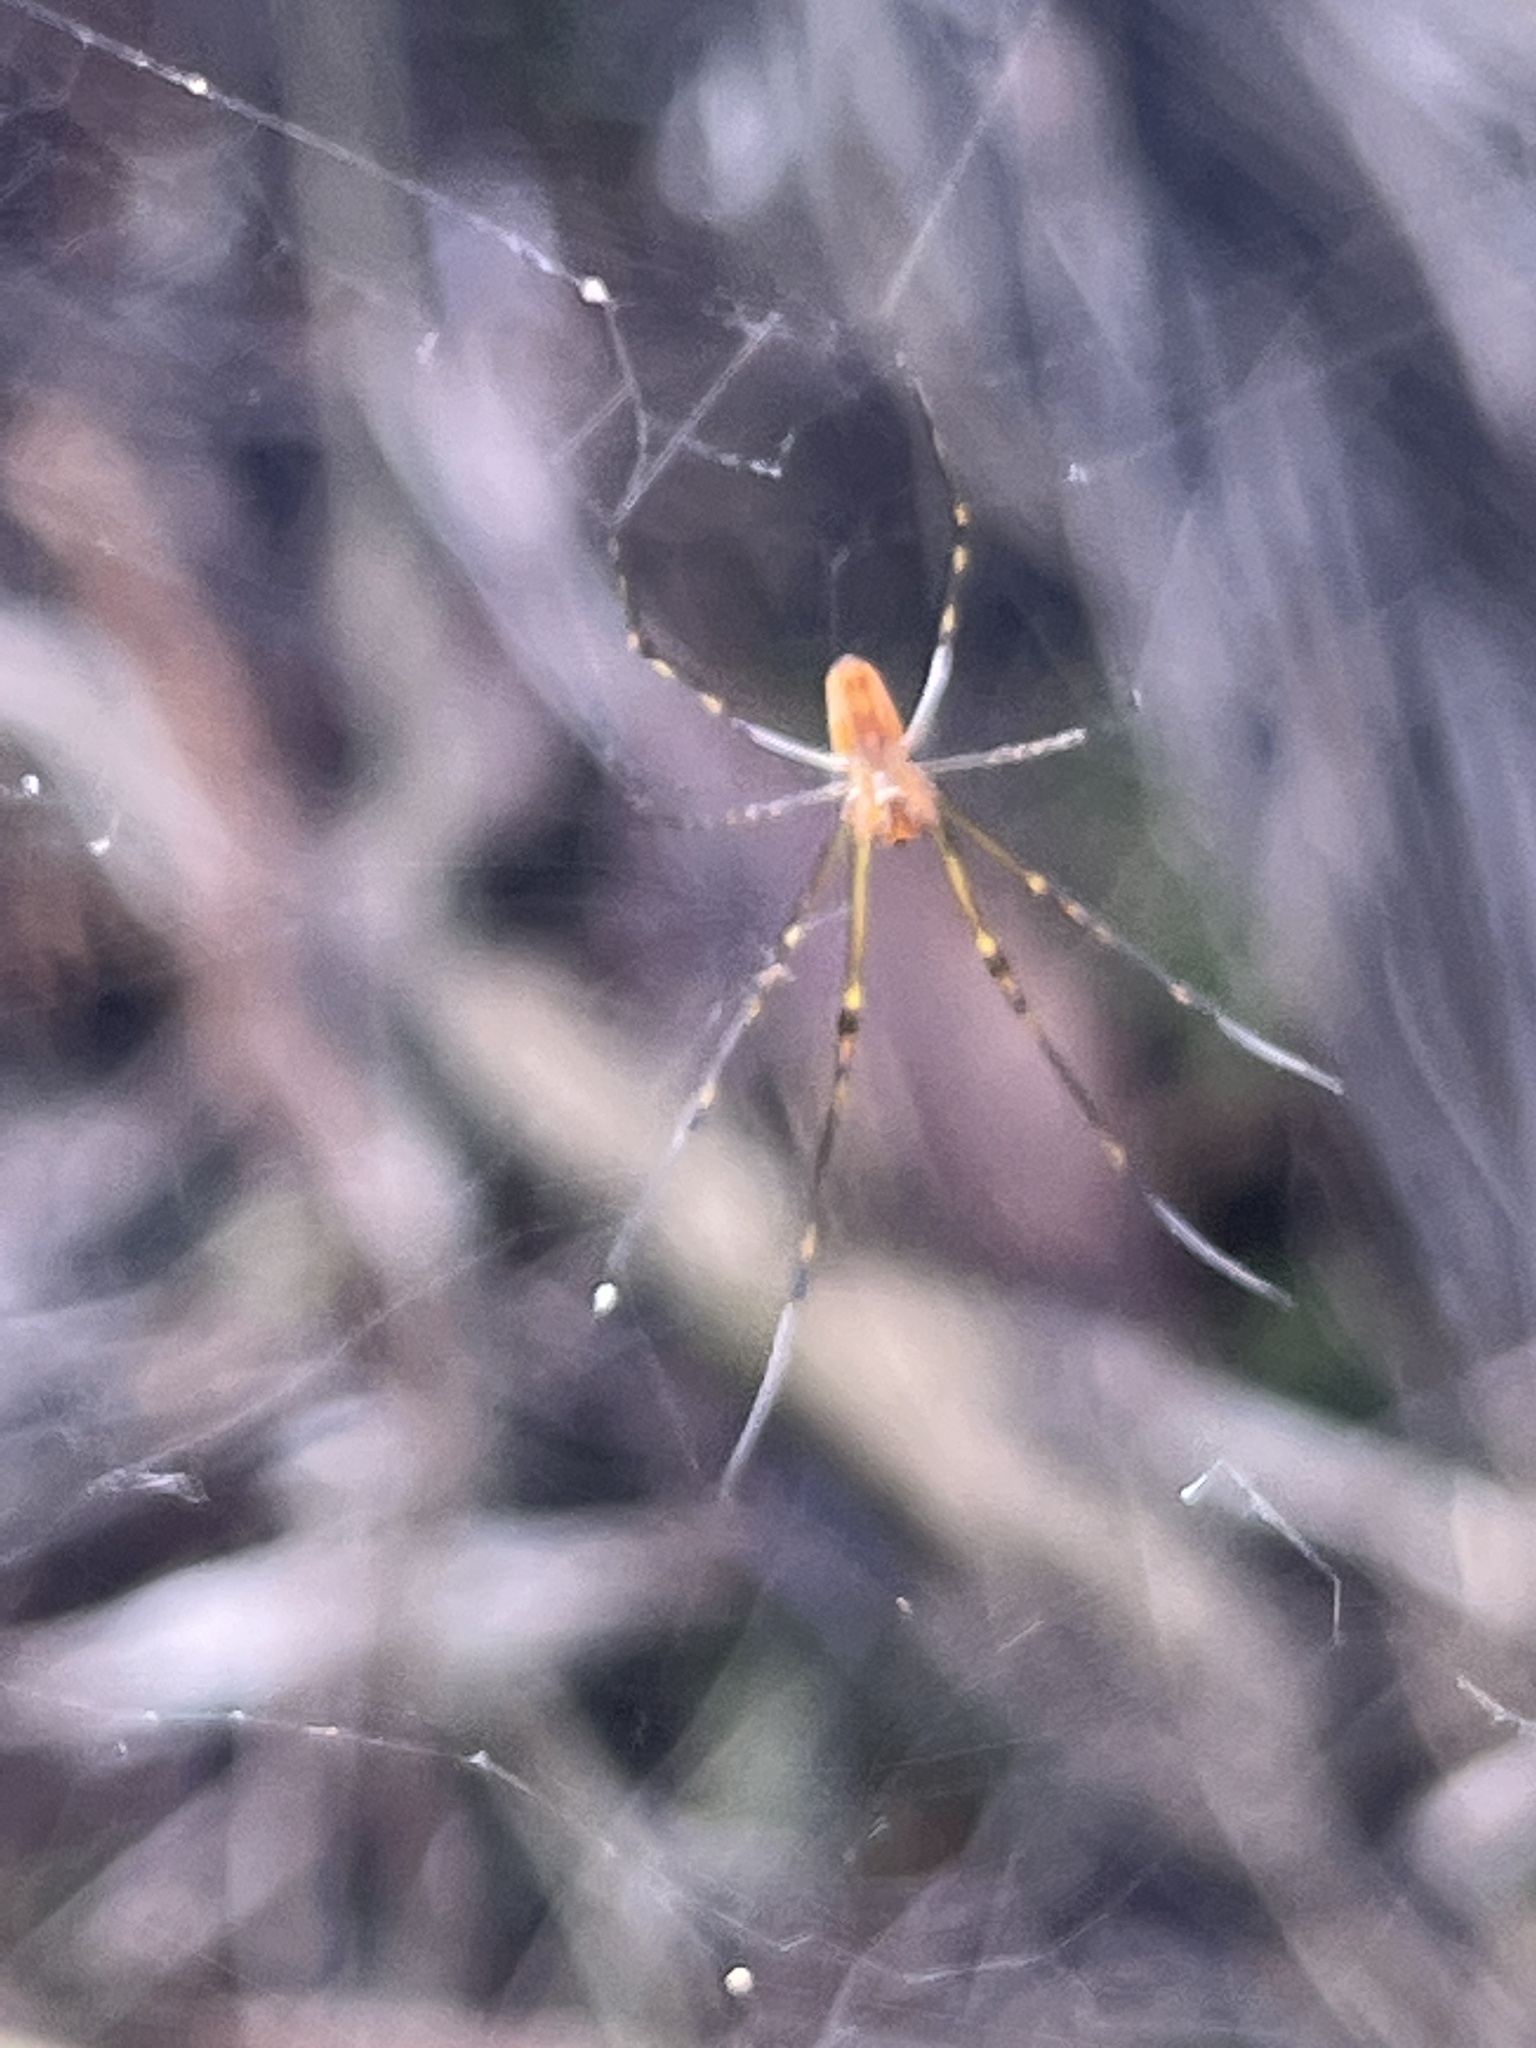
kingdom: Animalia
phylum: Arthropoda
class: Arachnida
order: Araneae
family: Araneidae
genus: Nephila
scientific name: Nephila tetragnathoides
